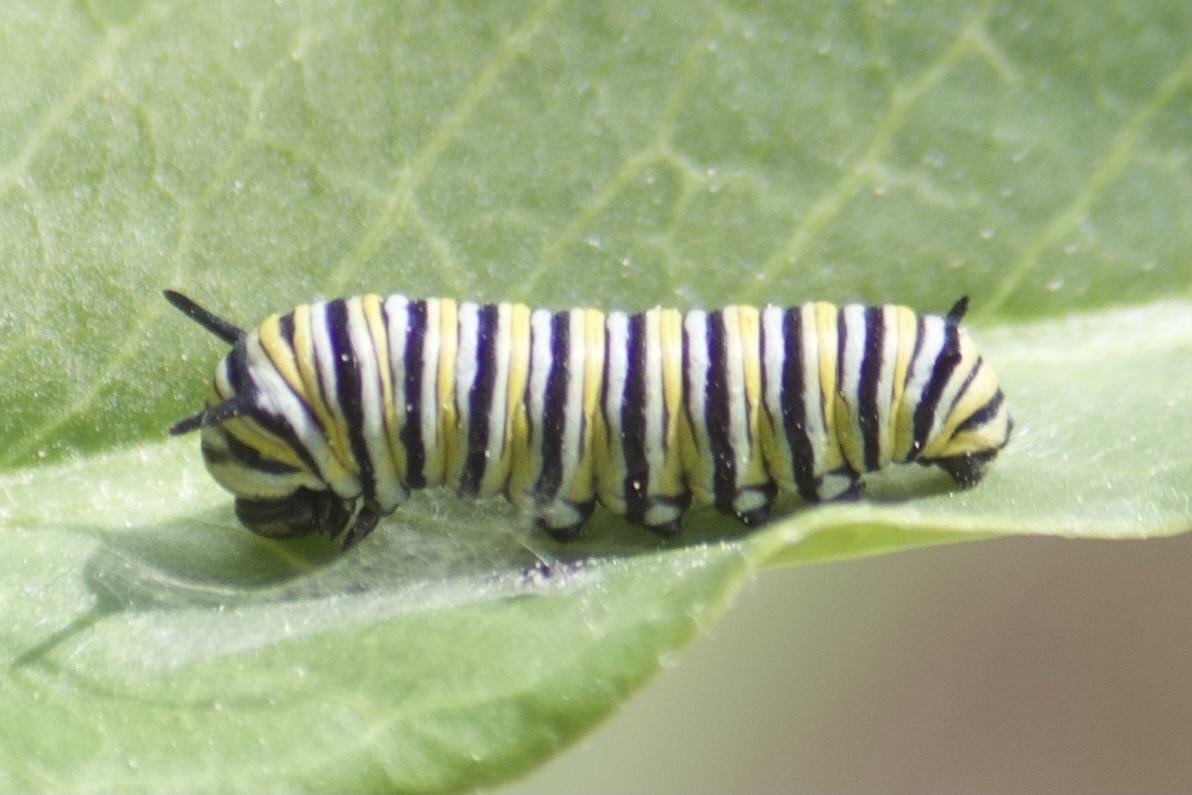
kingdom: Animalia
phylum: Arthropoda
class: Insecta
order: Lepidoptera
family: Nymphalidae
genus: Danaus
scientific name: Danaus plexippus
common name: Monarch
